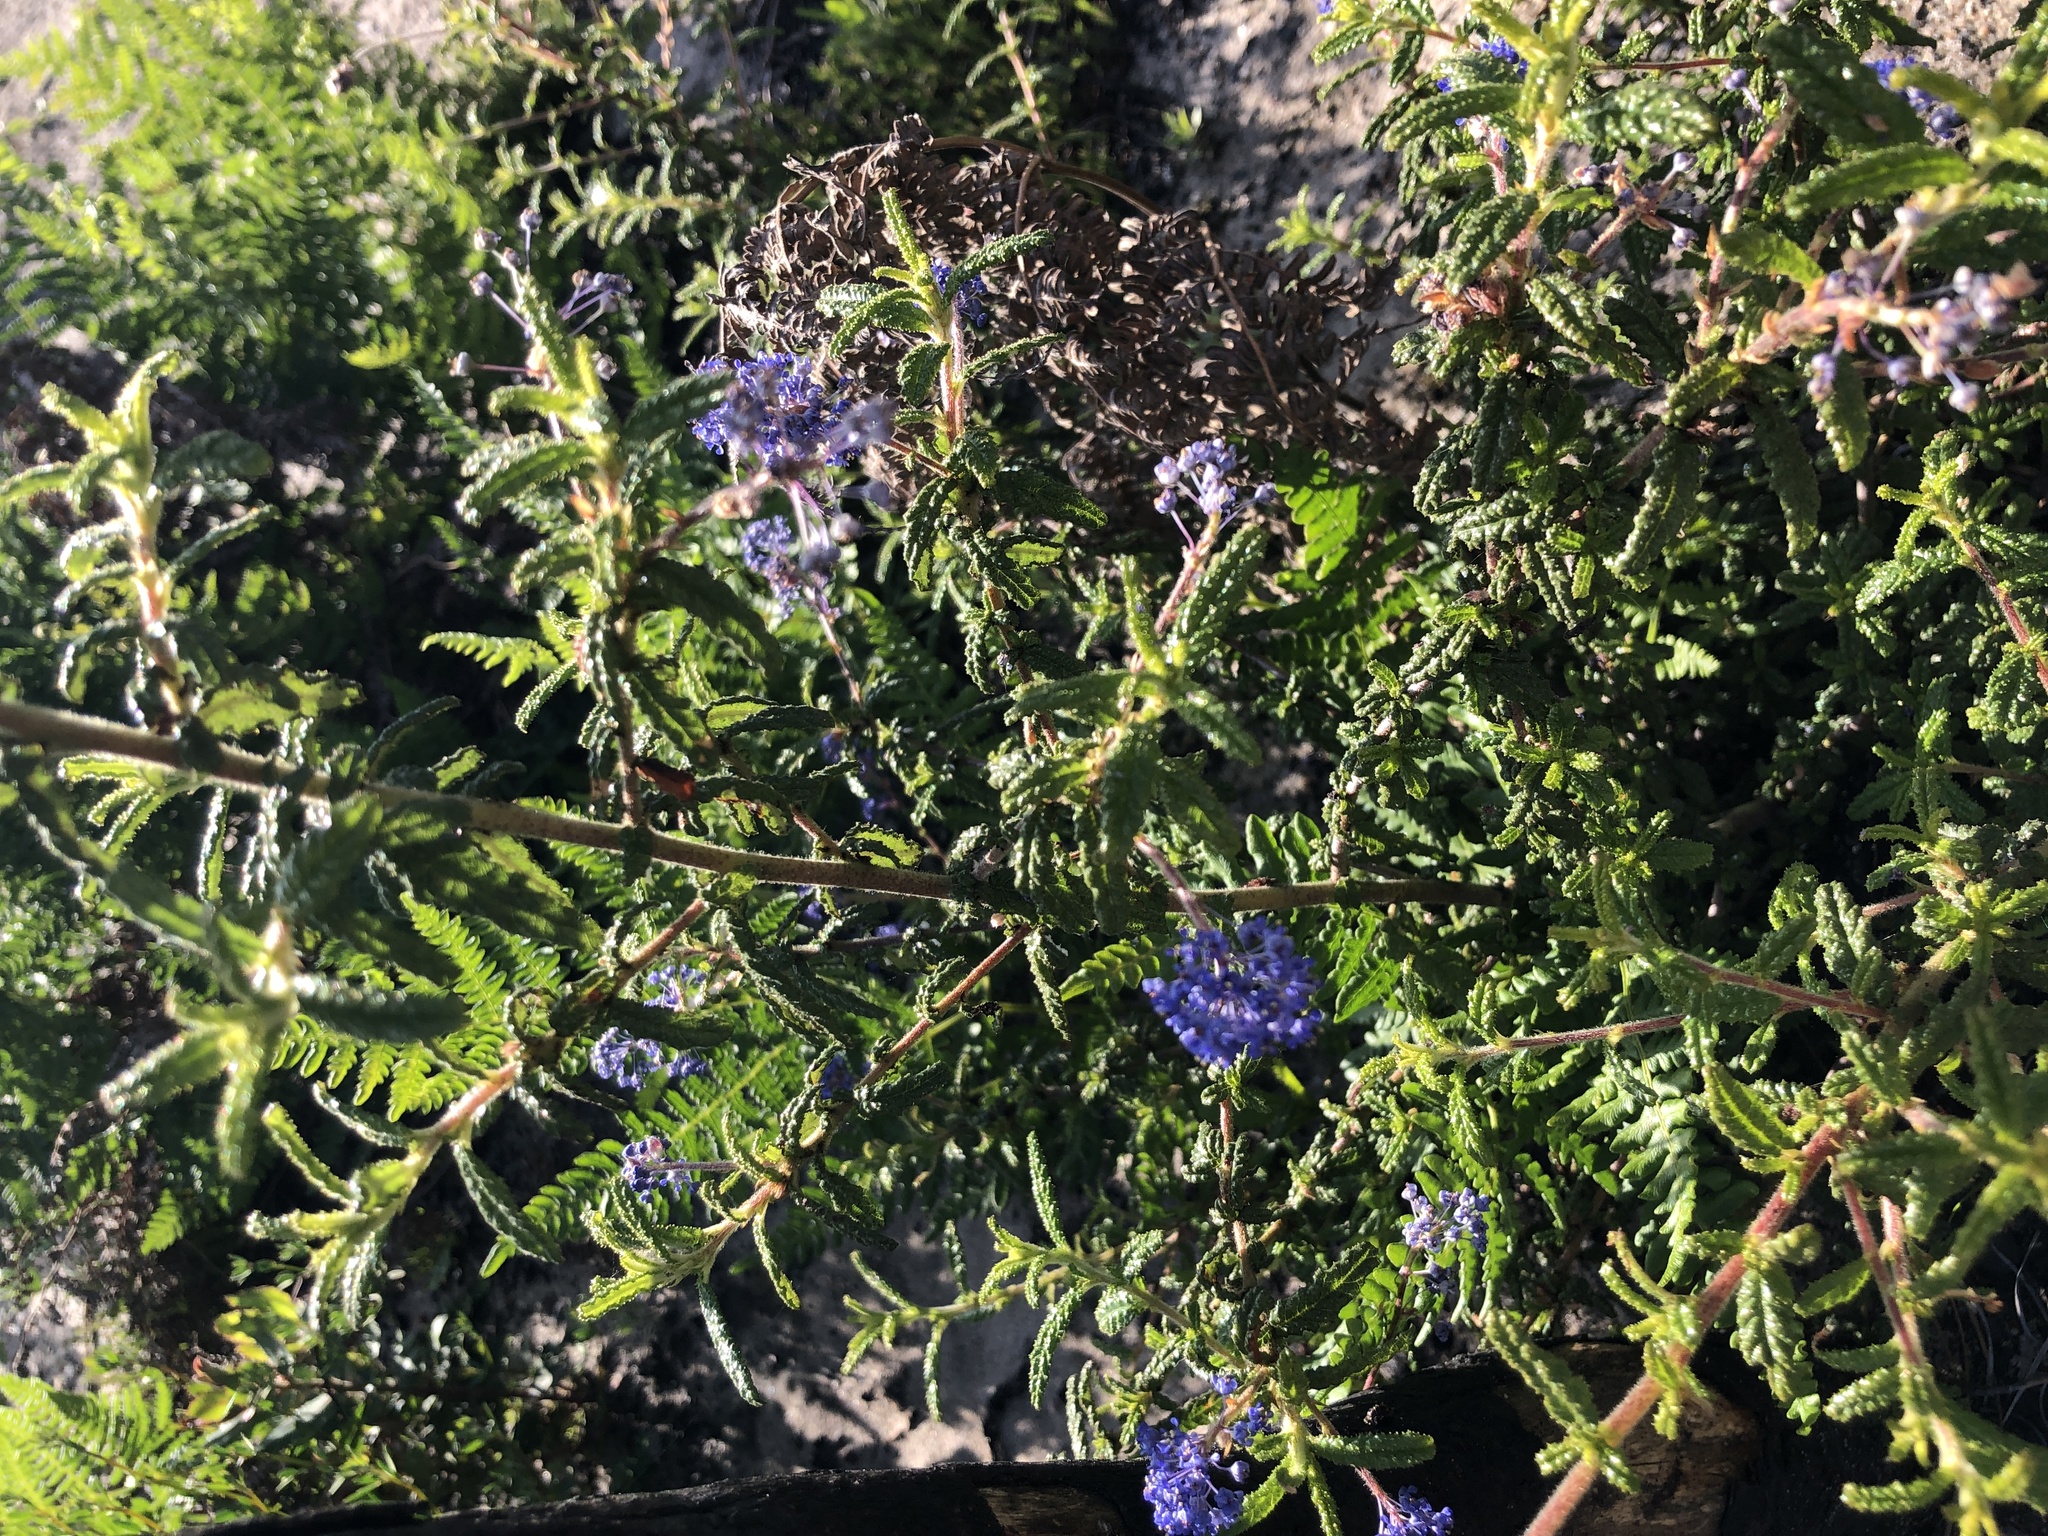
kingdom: Plantae
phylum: Tracheophyta
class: Magnoliopsida
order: Rosales
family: Rhamnaceae
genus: Ceanothus
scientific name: Ceanothus papillosus
